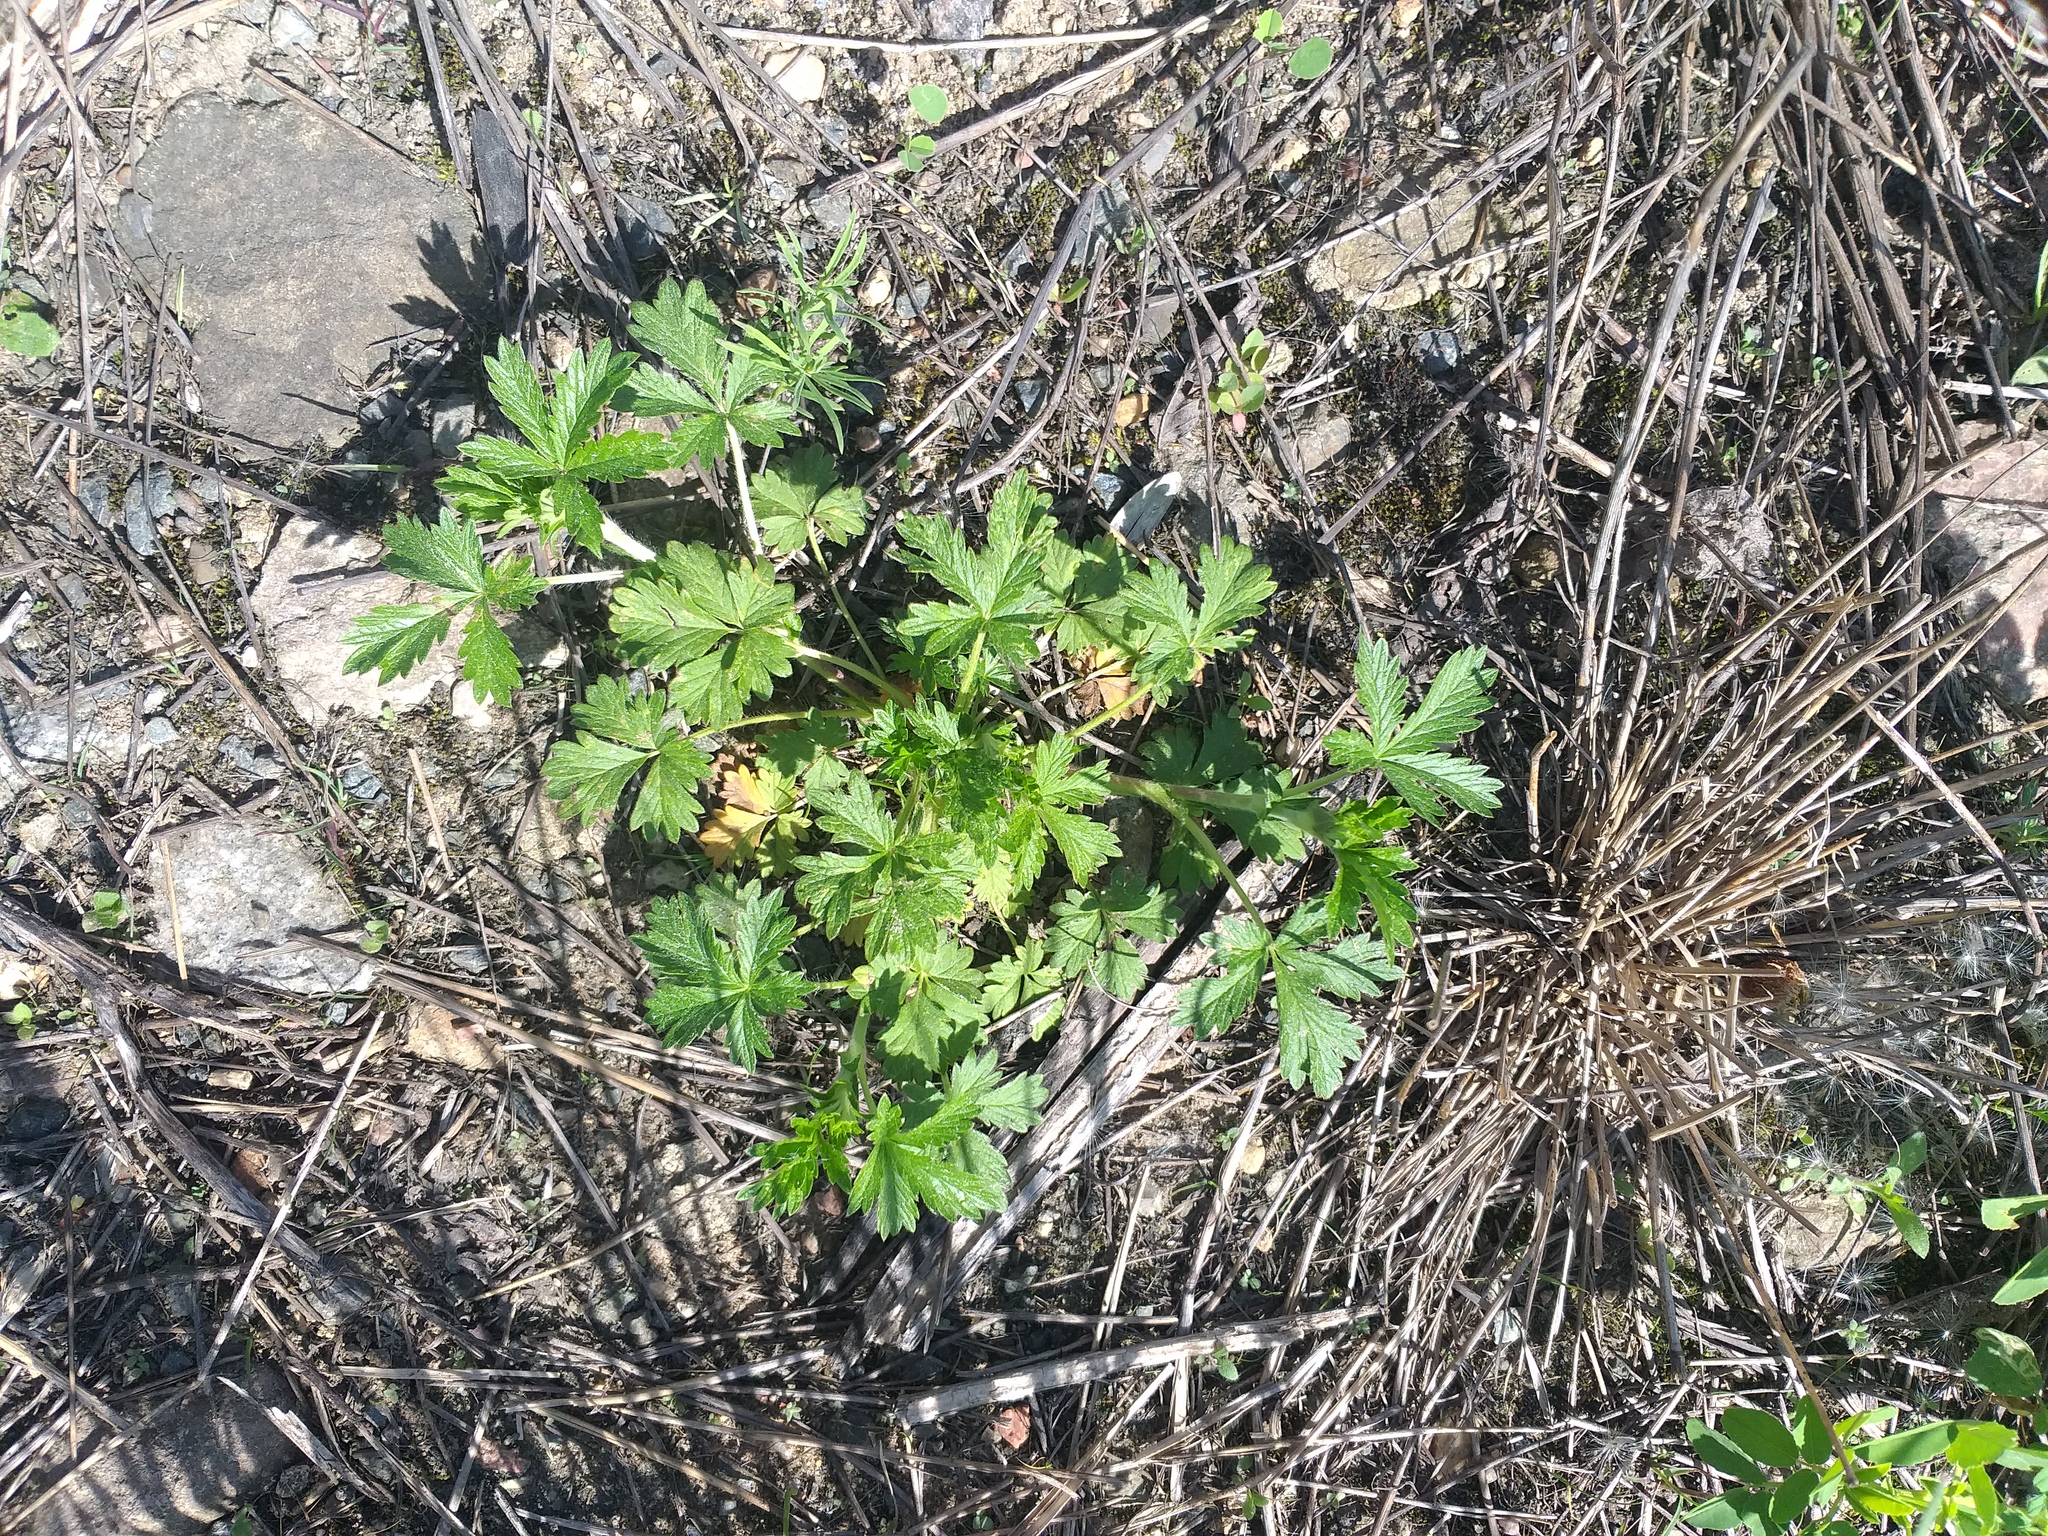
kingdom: Plantae
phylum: Tracheophyta
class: Magnoliopsida
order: Rosales
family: Rosaceae
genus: Potentilla
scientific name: Potentilla intermedia
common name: Downy cinquefoil
